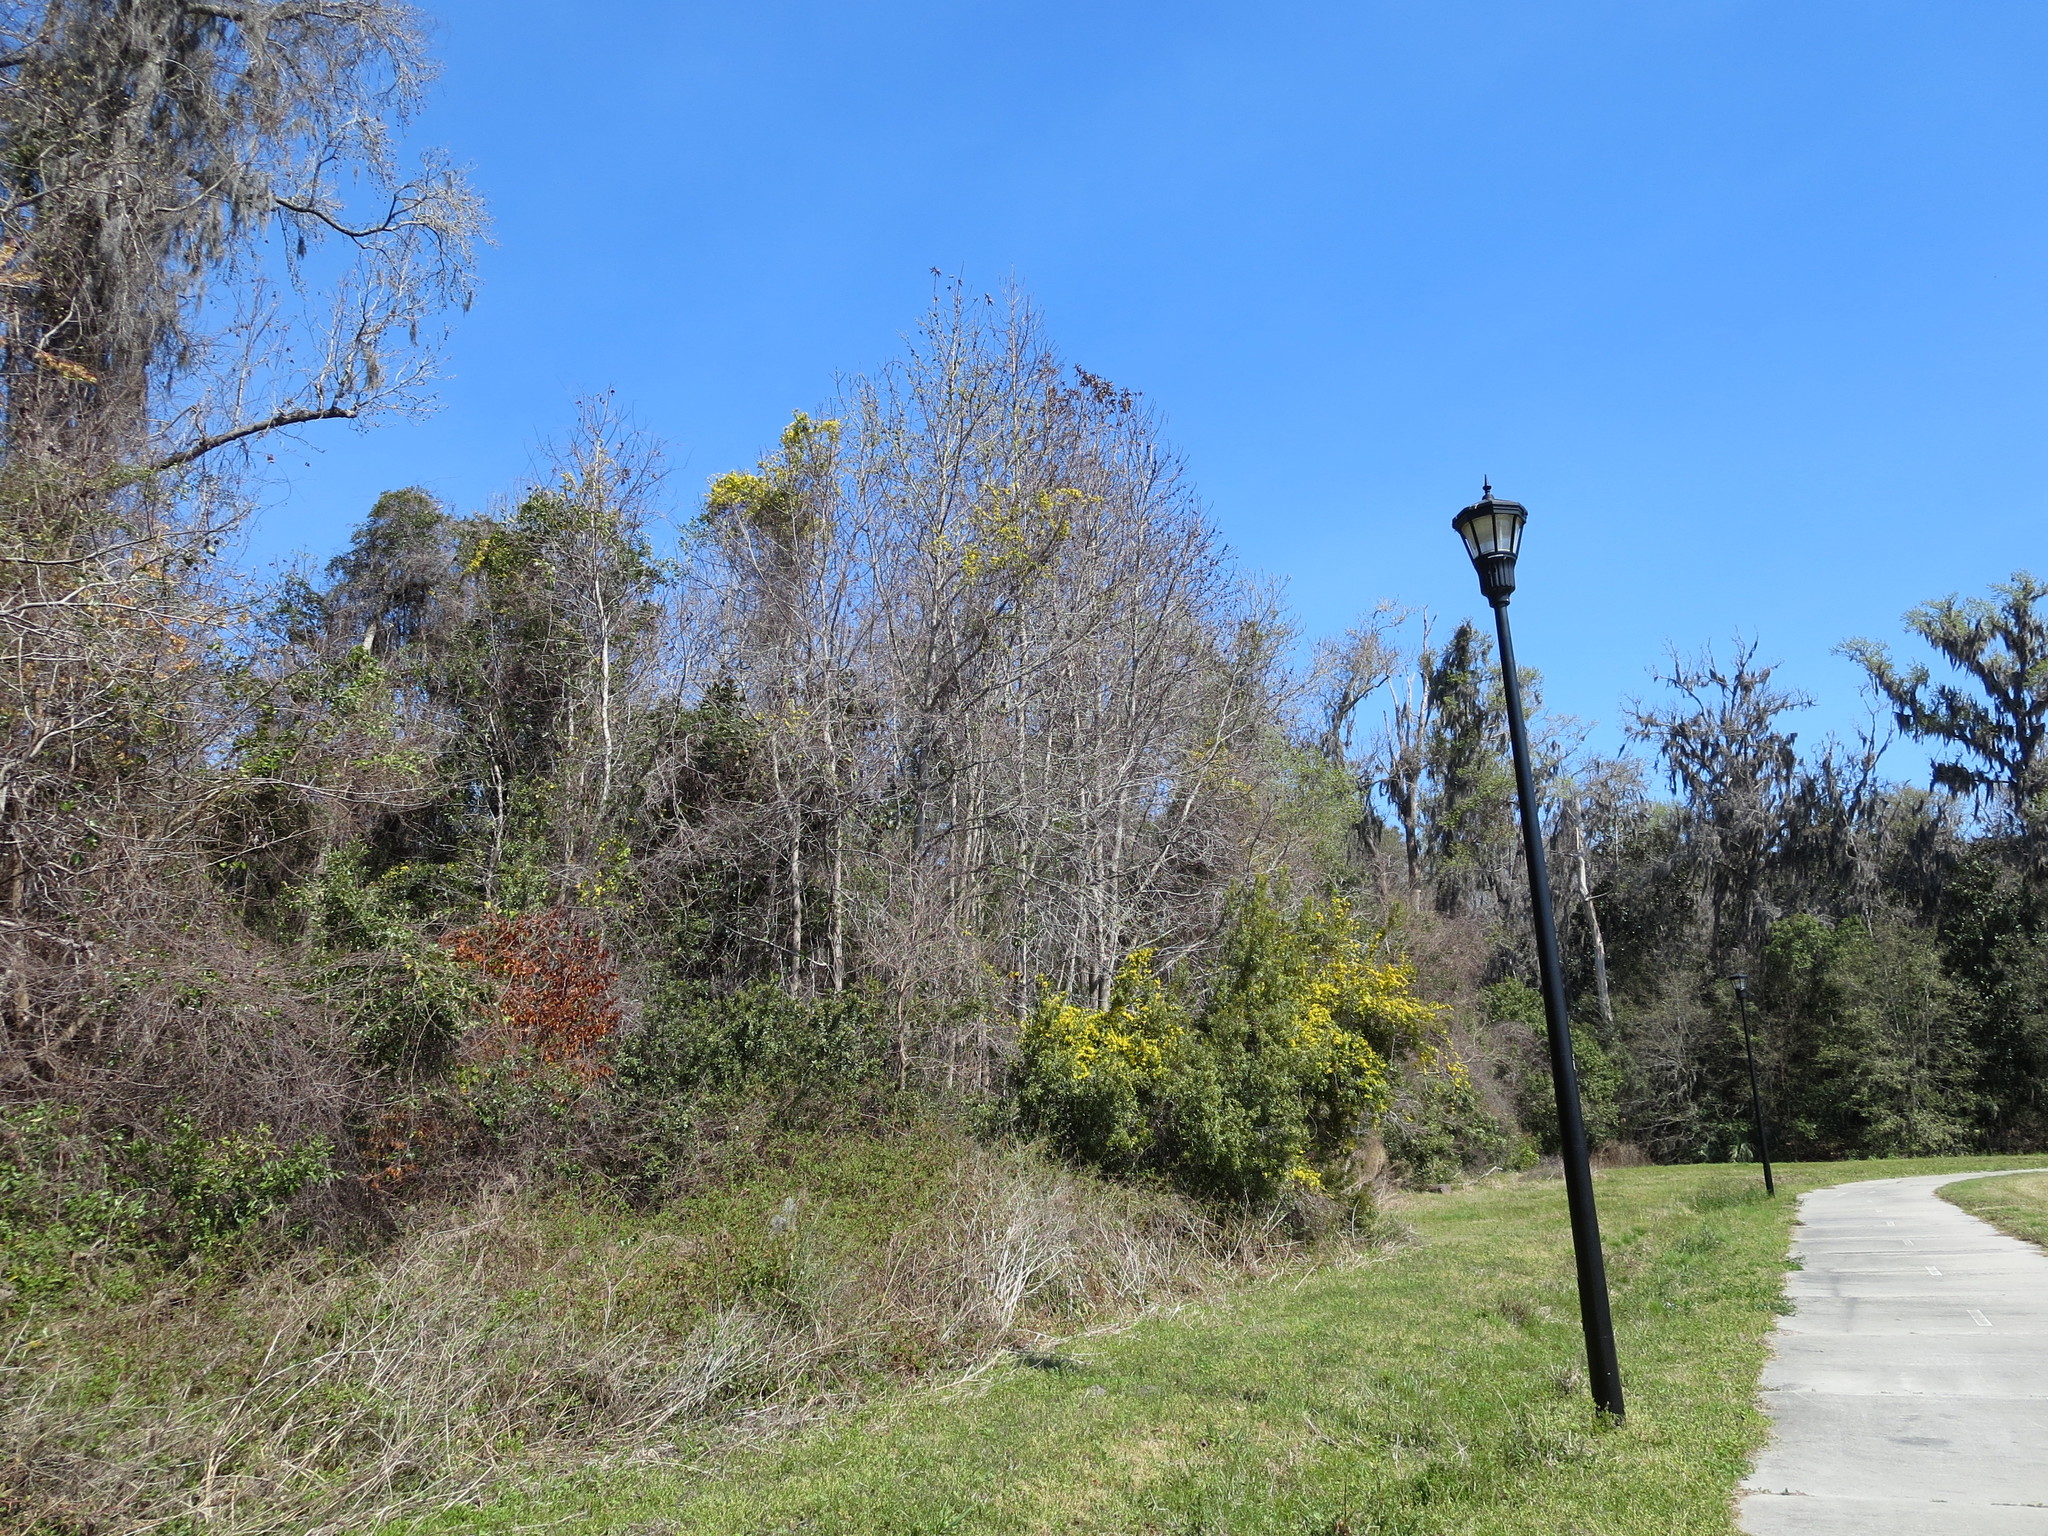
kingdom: Plantae
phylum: Tracheophyta
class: Magnoliopsida
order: Gentianales
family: Gelsemiaceae
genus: Gelsemium
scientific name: Gelsemium sempervirens
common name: Carolina-jasmine
